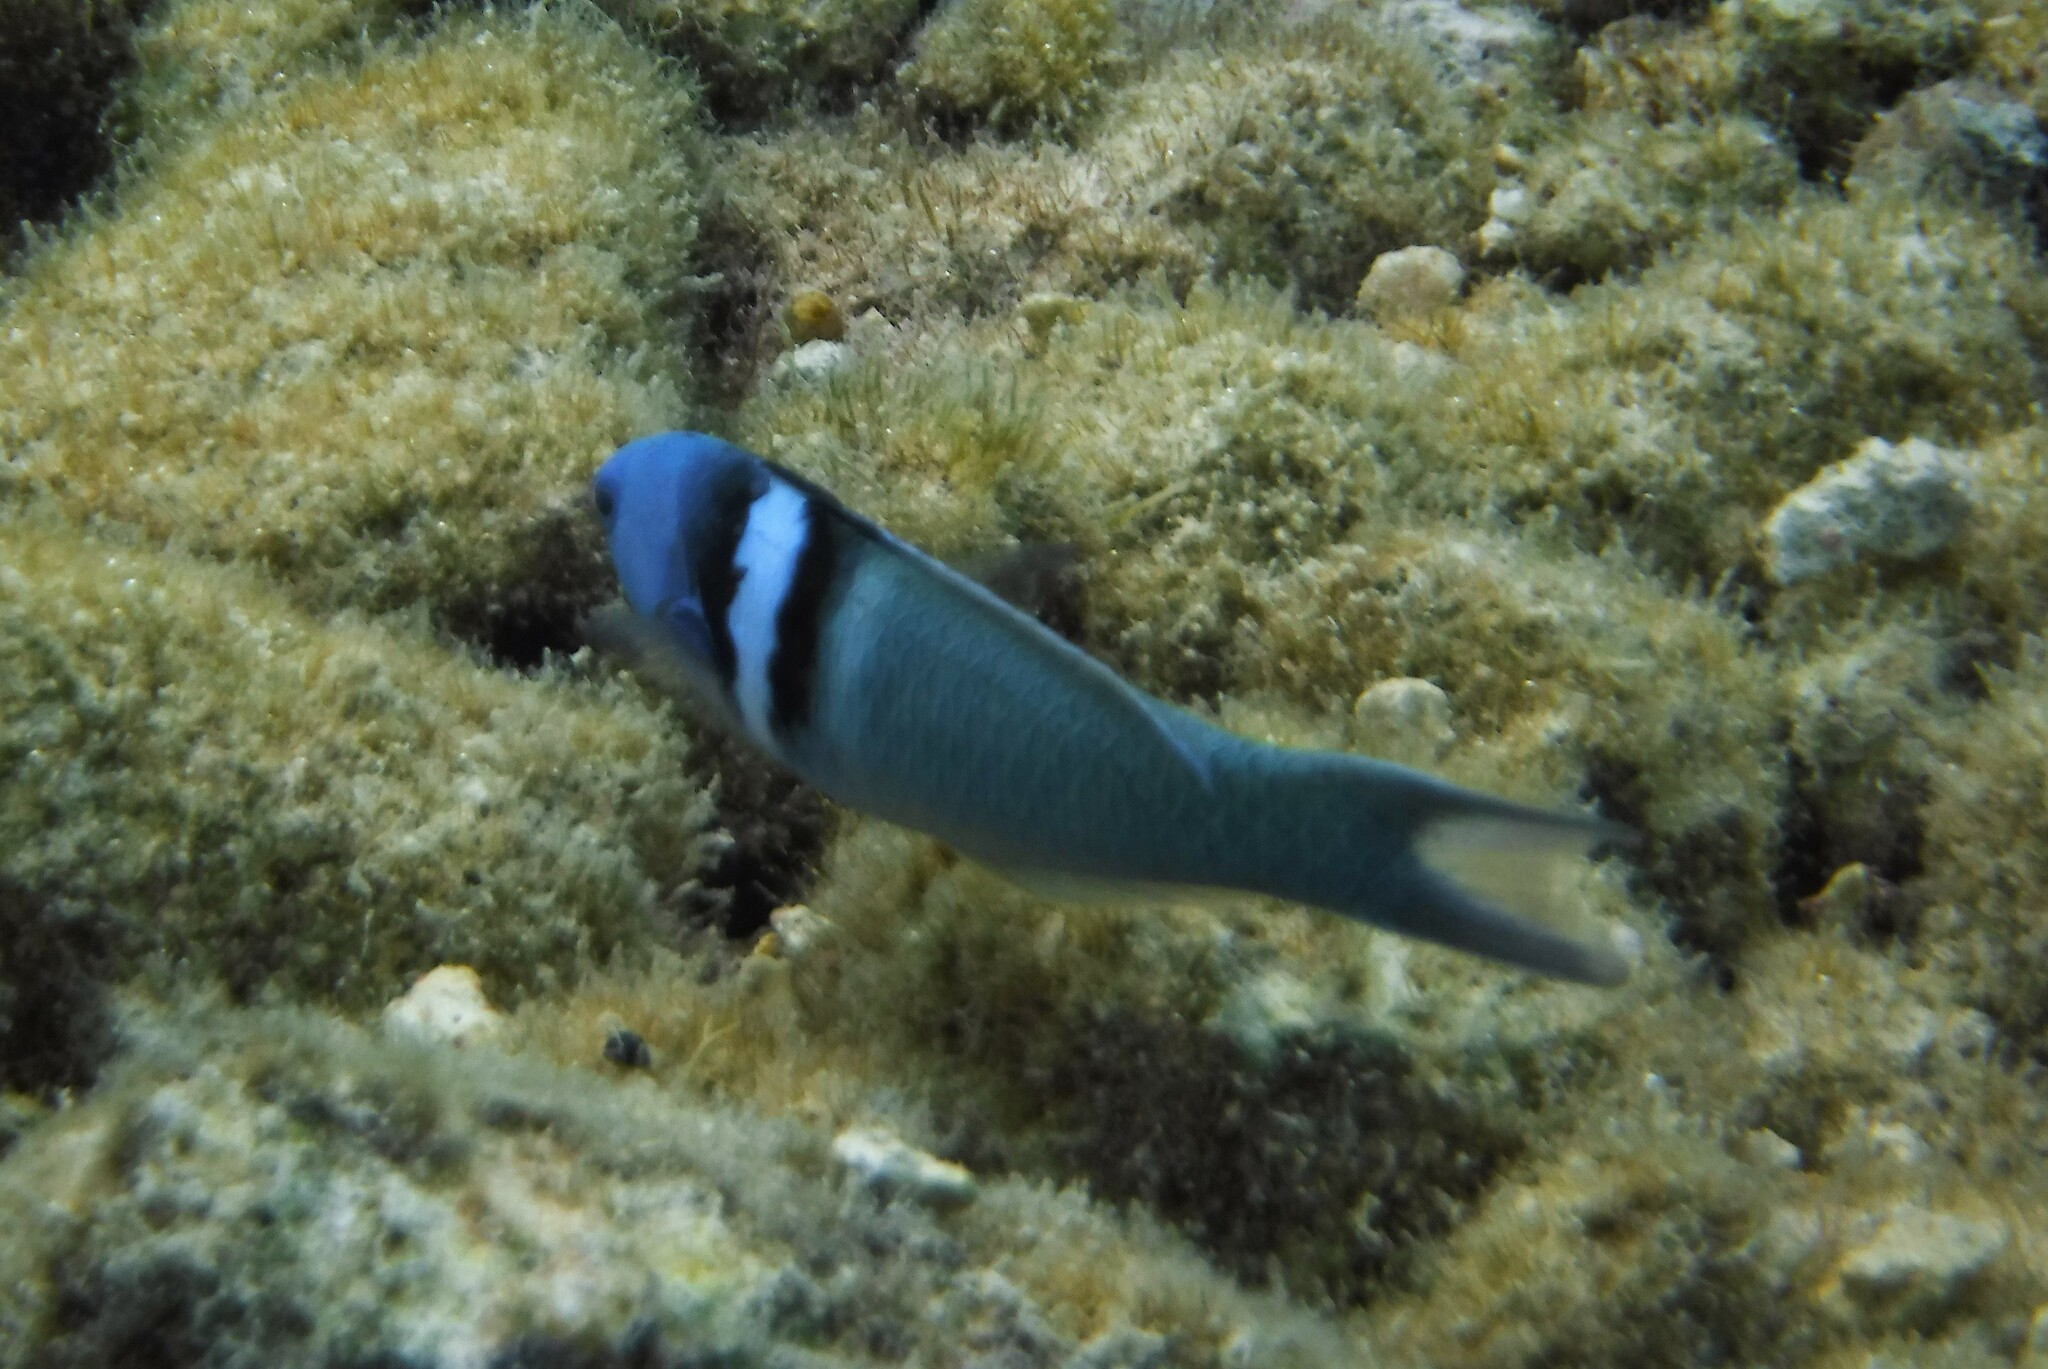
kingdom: Animalia
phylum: Chordata
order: Perciformes
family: Labridae
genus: Thalassoma
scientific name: Thalassoma bifasciatum
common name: Bluehead wrasse
